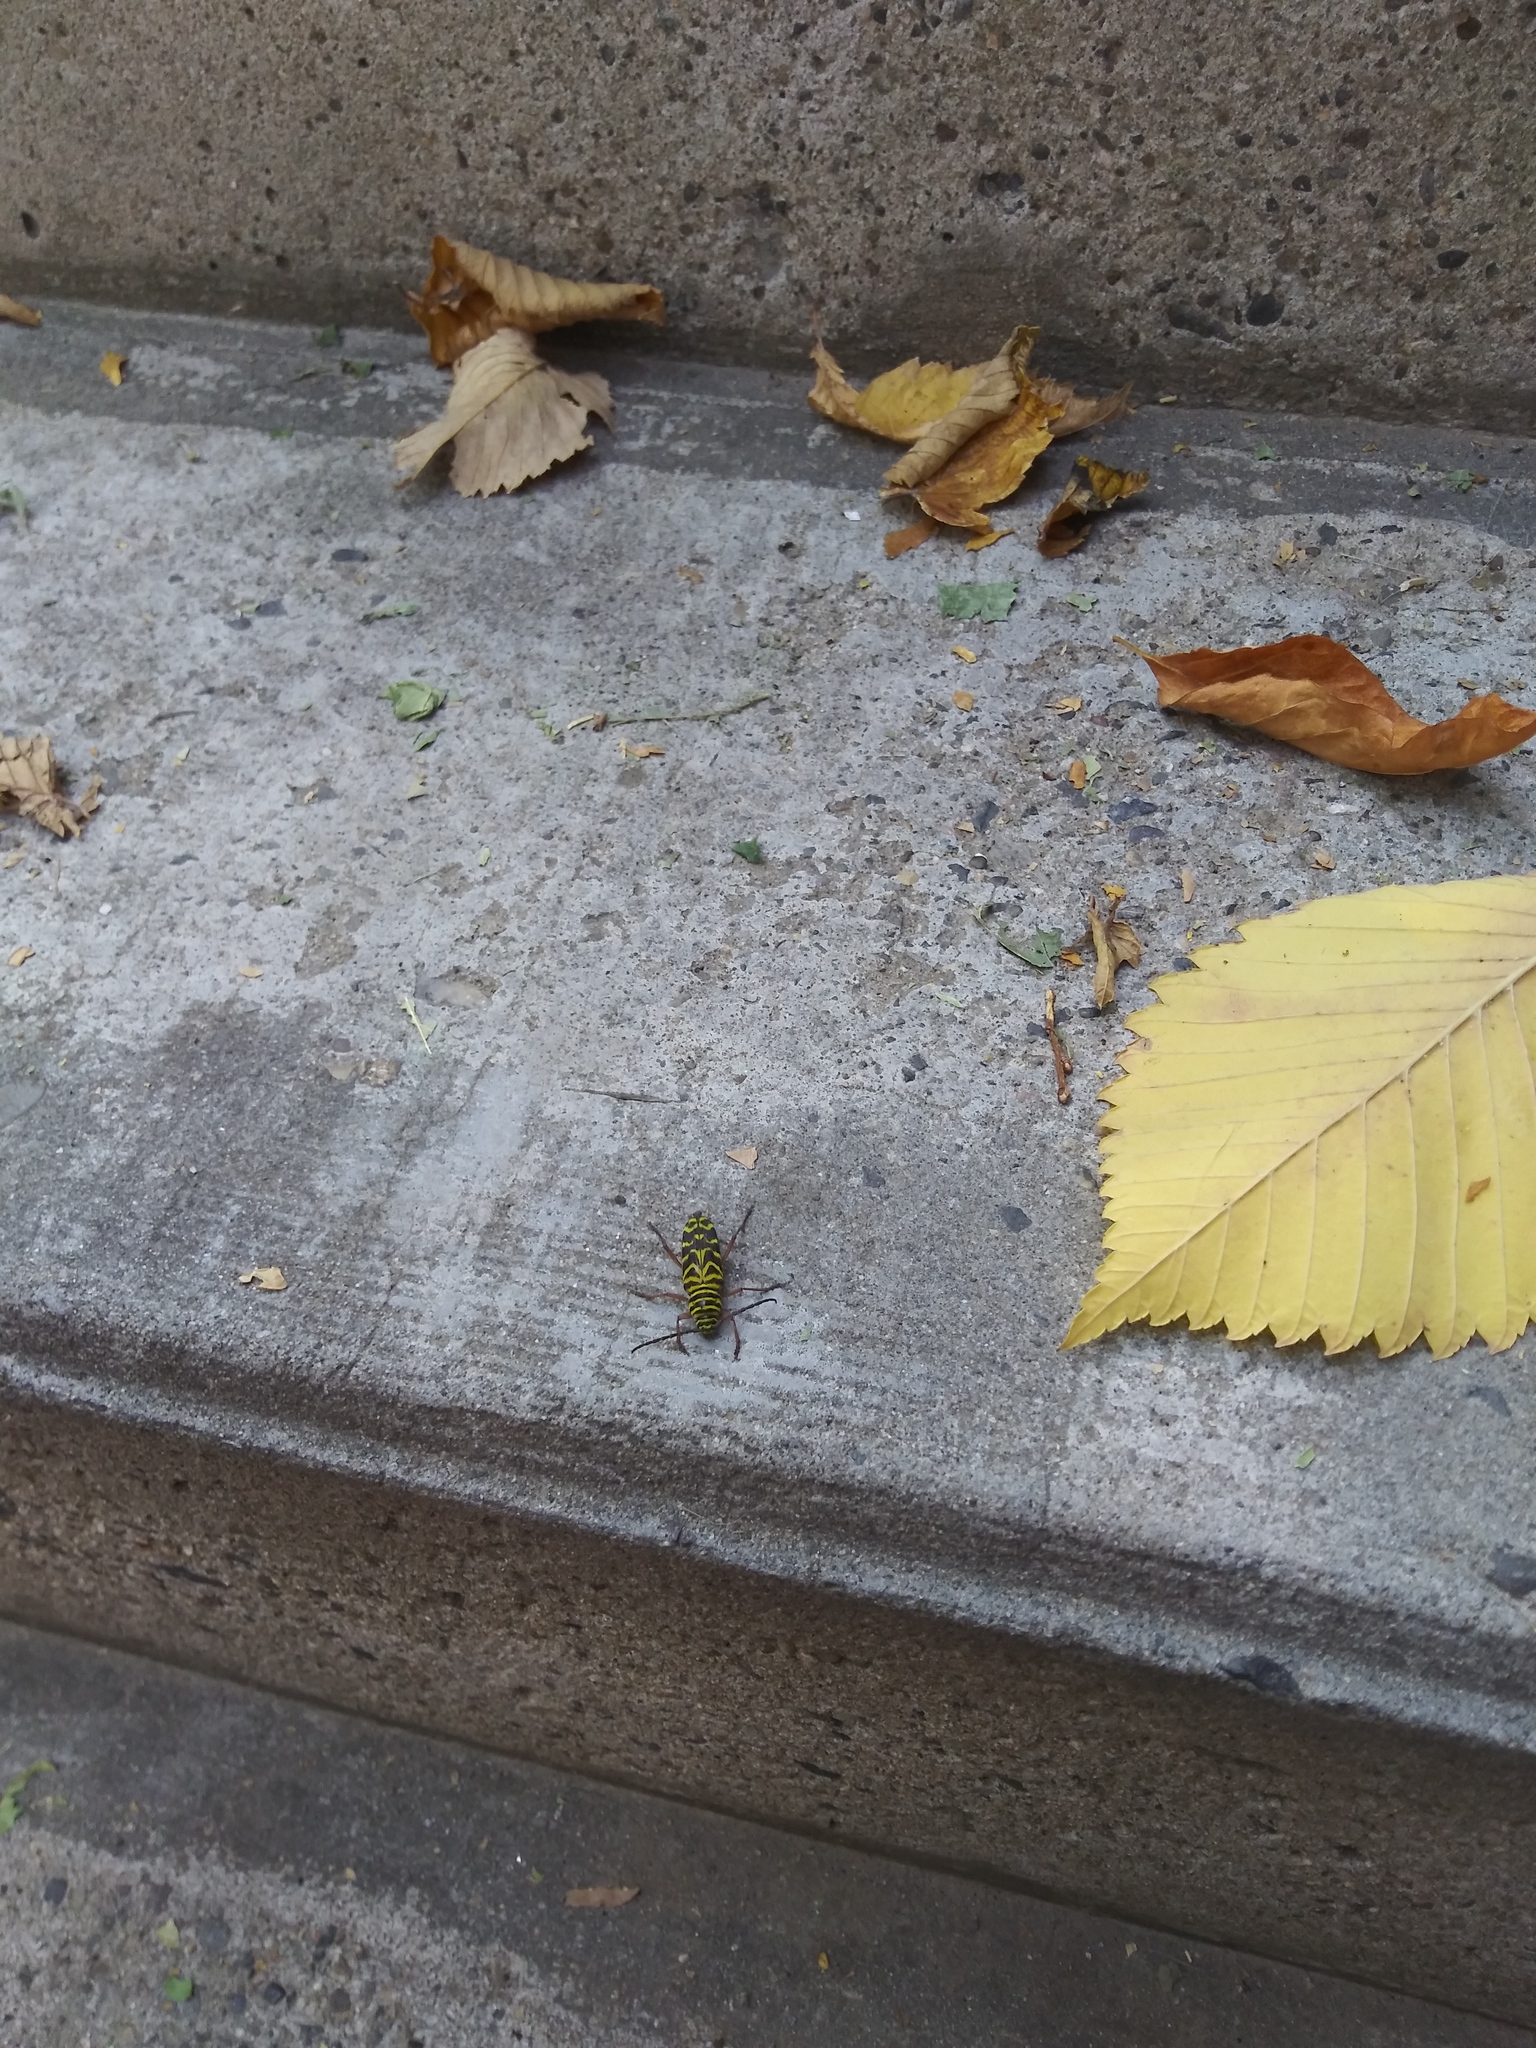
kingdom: Animalia
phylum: Arthropoda
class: Insecta
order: Coleoptera
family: Cerambycidae
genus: Megacyllene
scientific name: Megacyllene robiniae
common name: Locust borer
